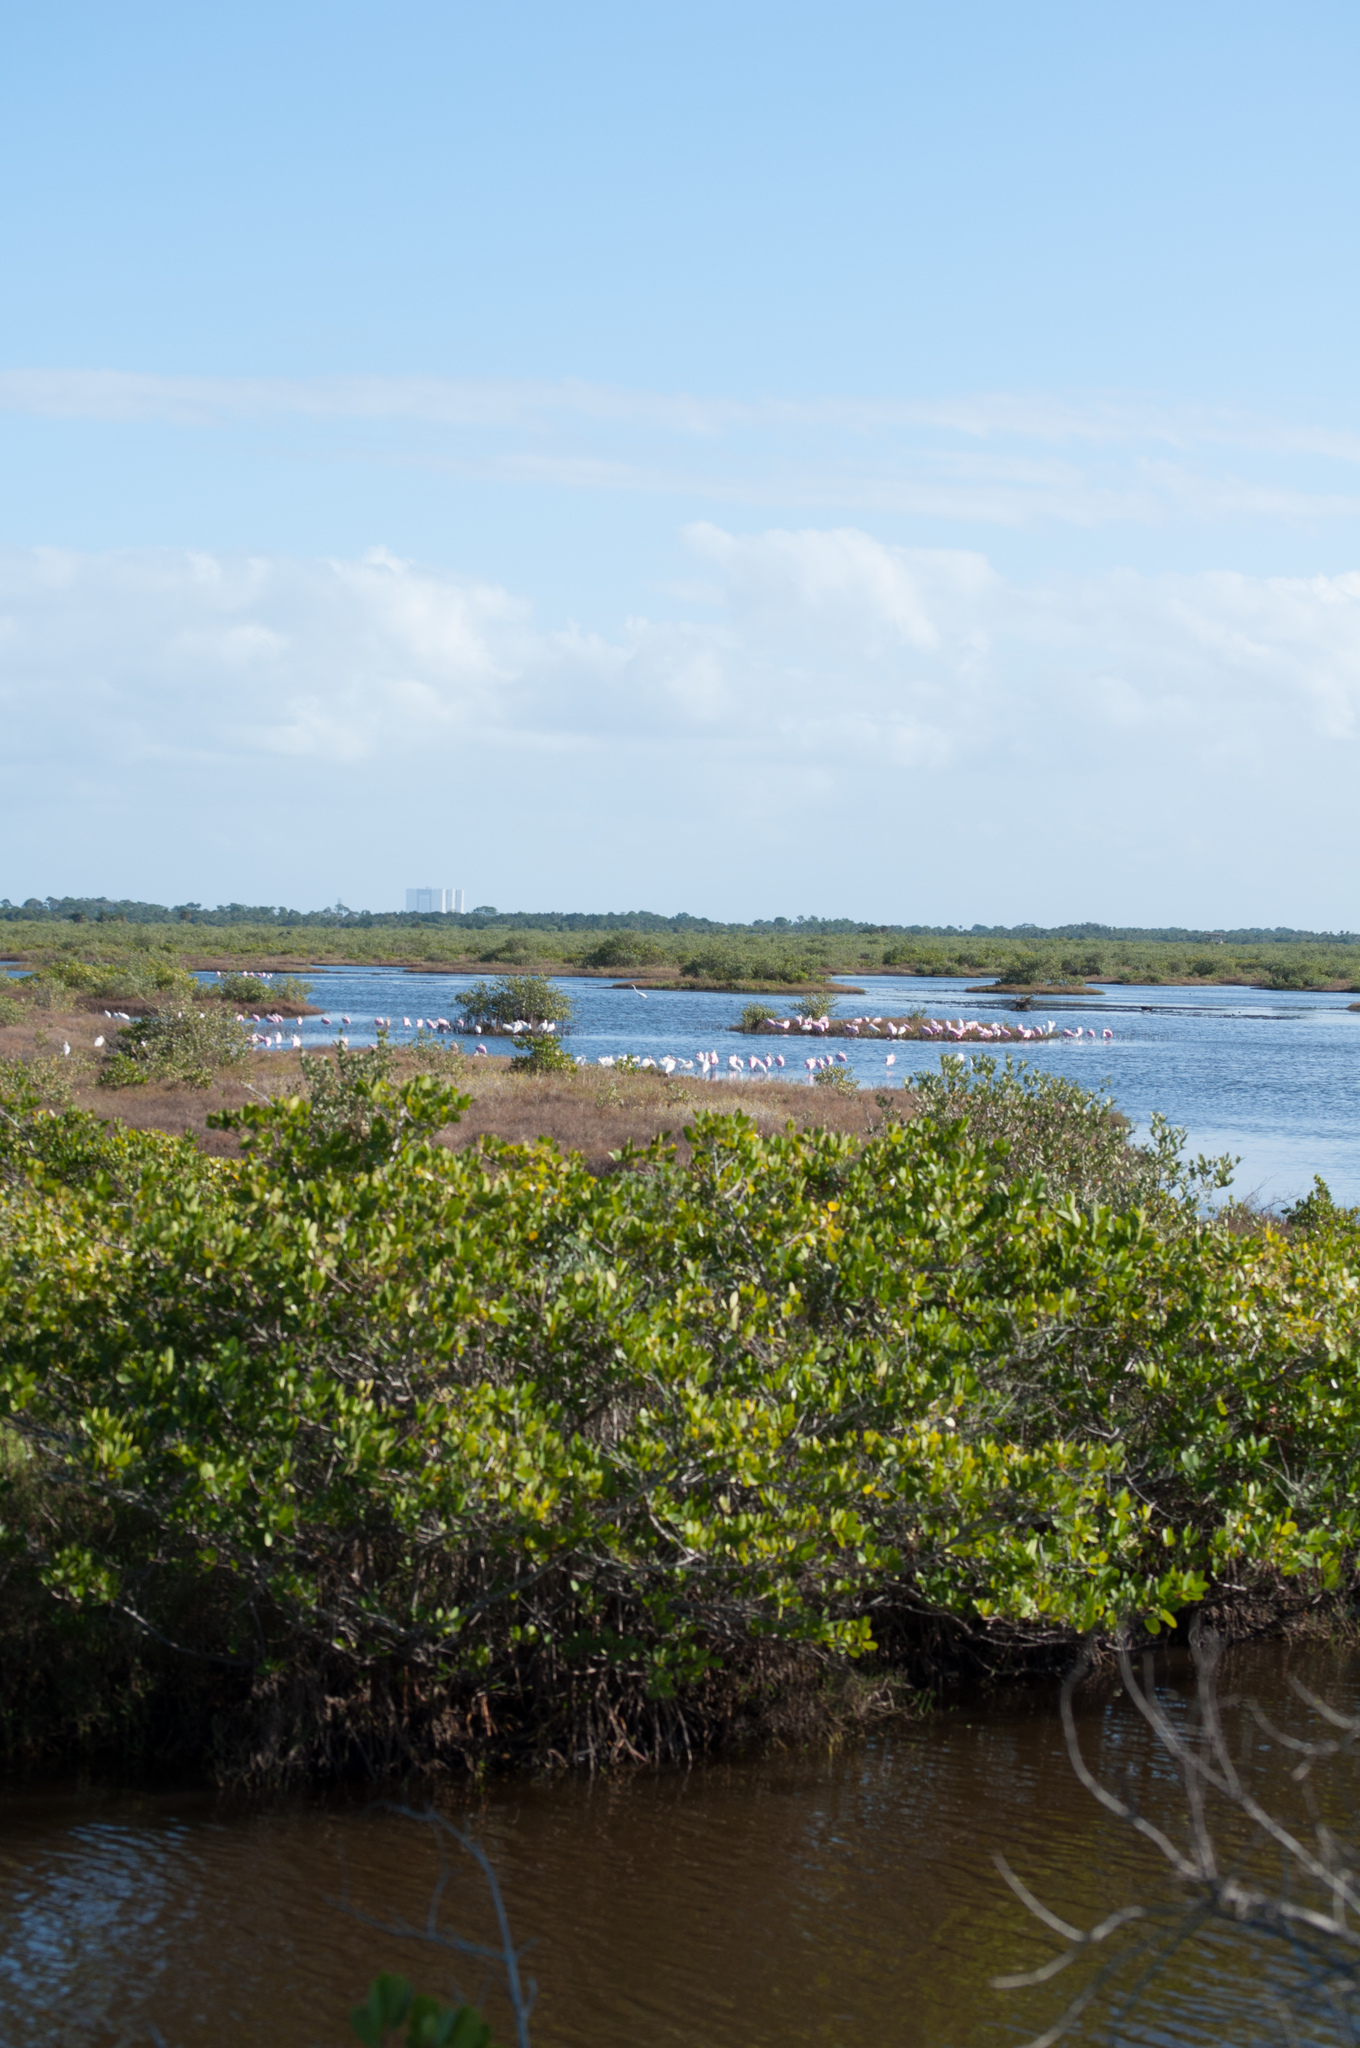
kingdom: Animalia
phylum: Chordata
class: Aves
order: Pelecaniformes
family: Threskiornithidae
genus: Platalea
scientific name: Platalea ajaja
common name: Roseate spoonbill
